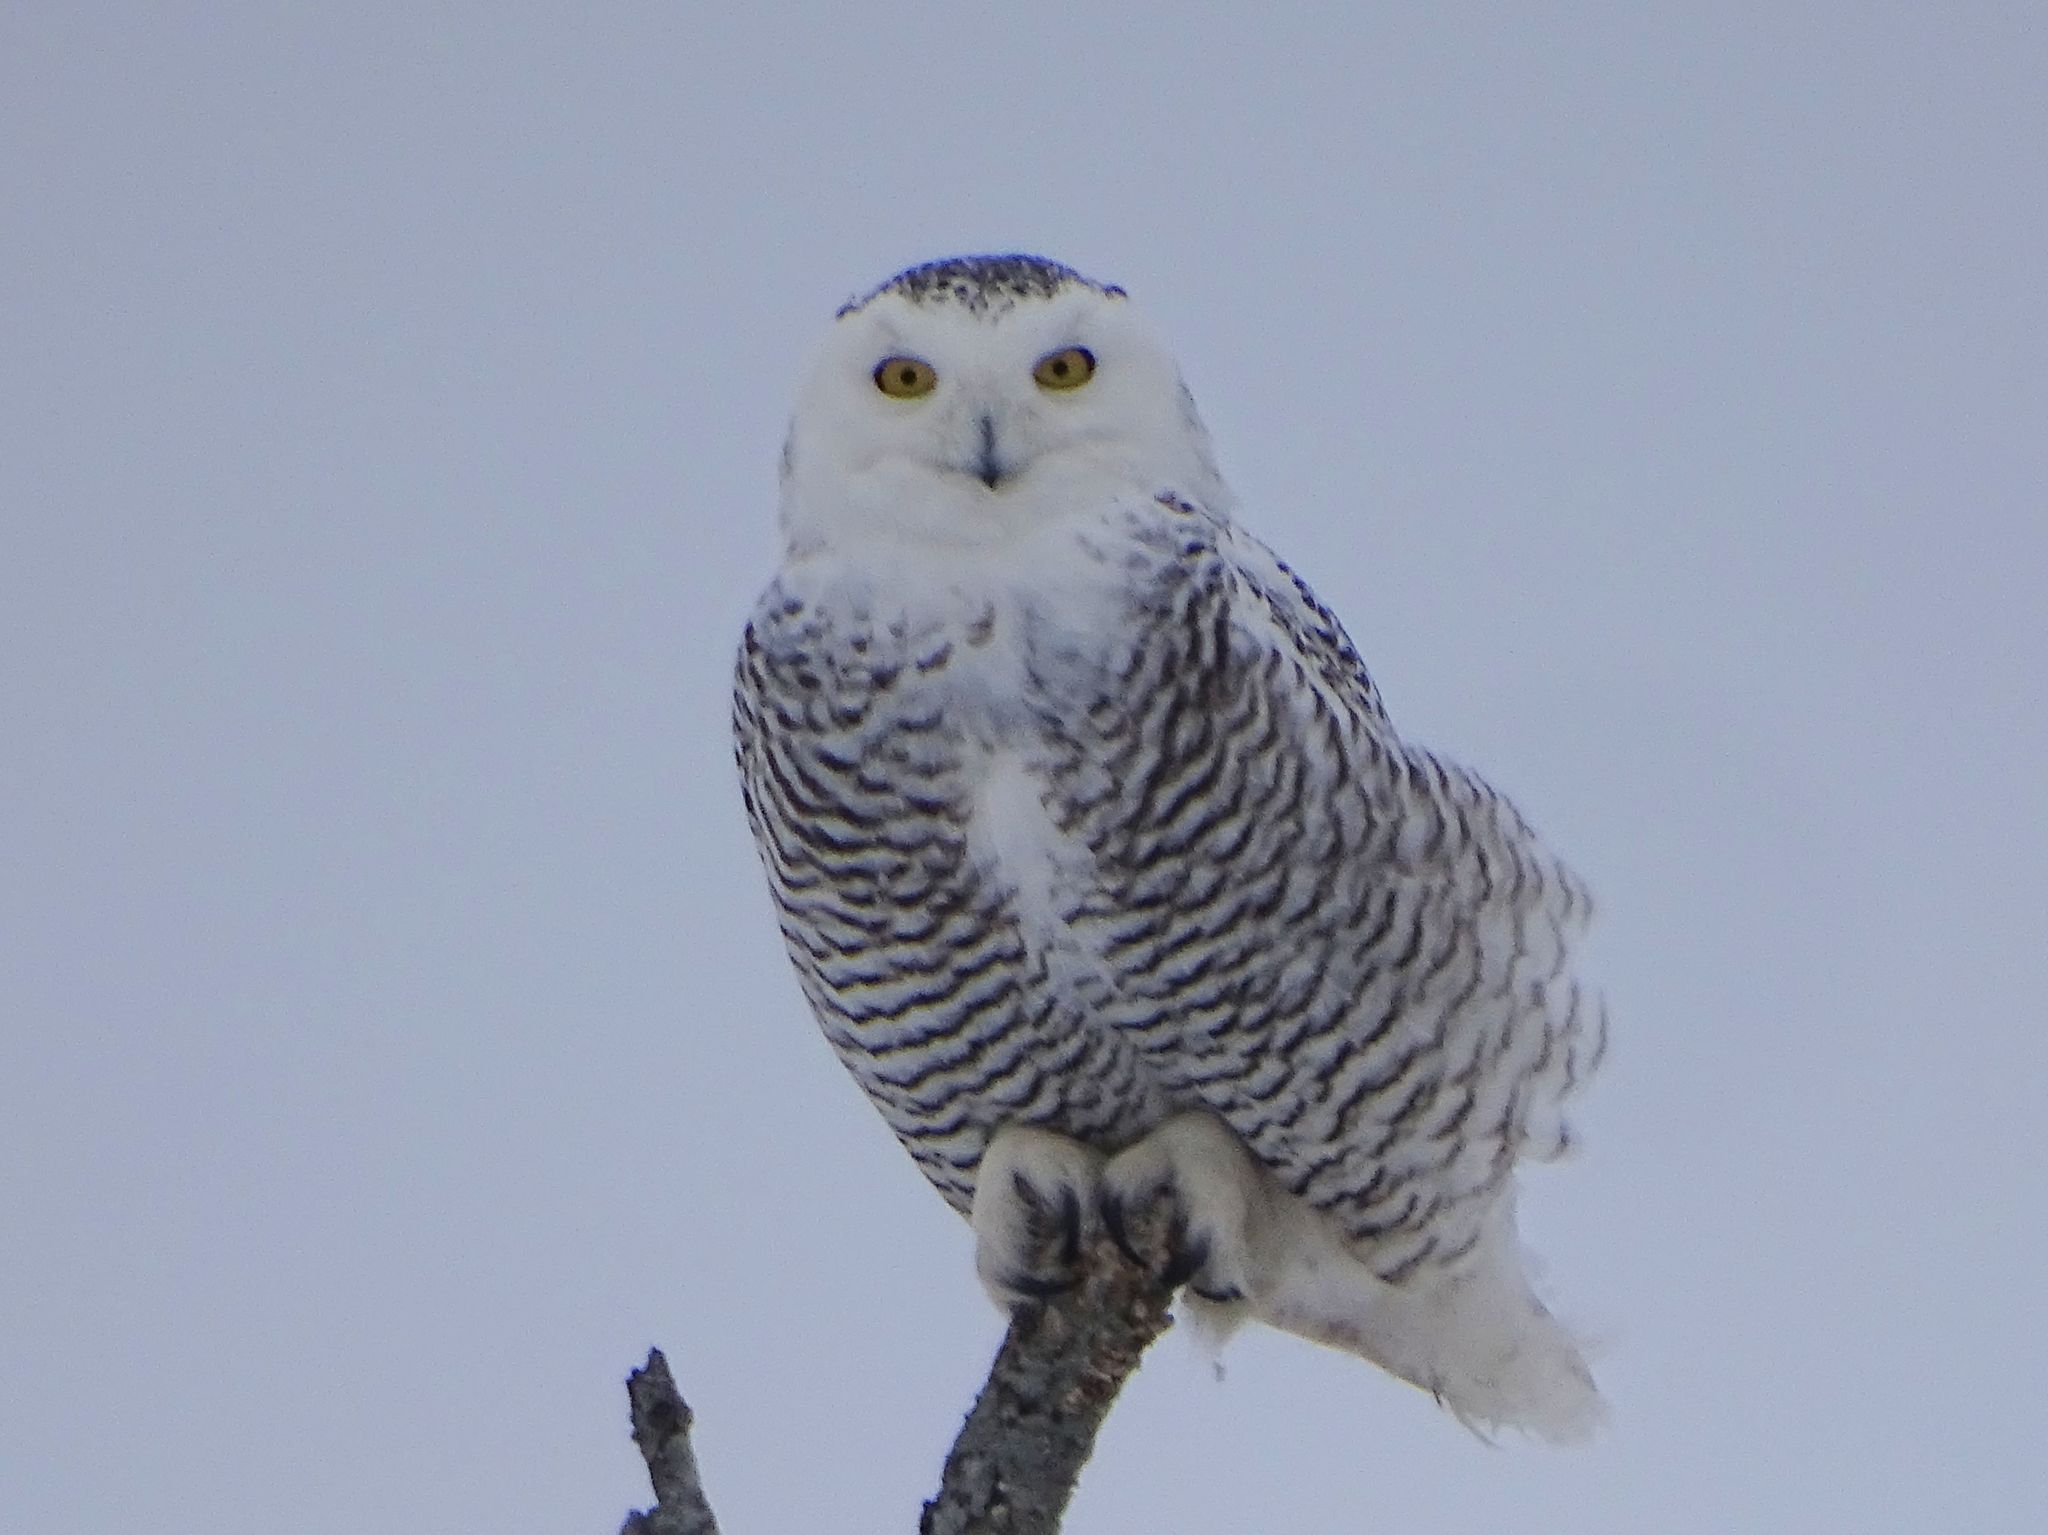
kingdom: Animalia
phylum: Chordata
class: Aves
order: Strigiformes
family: Strigidae
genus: Bubo
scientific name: Bubo scandiacus
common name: Snowy owl
